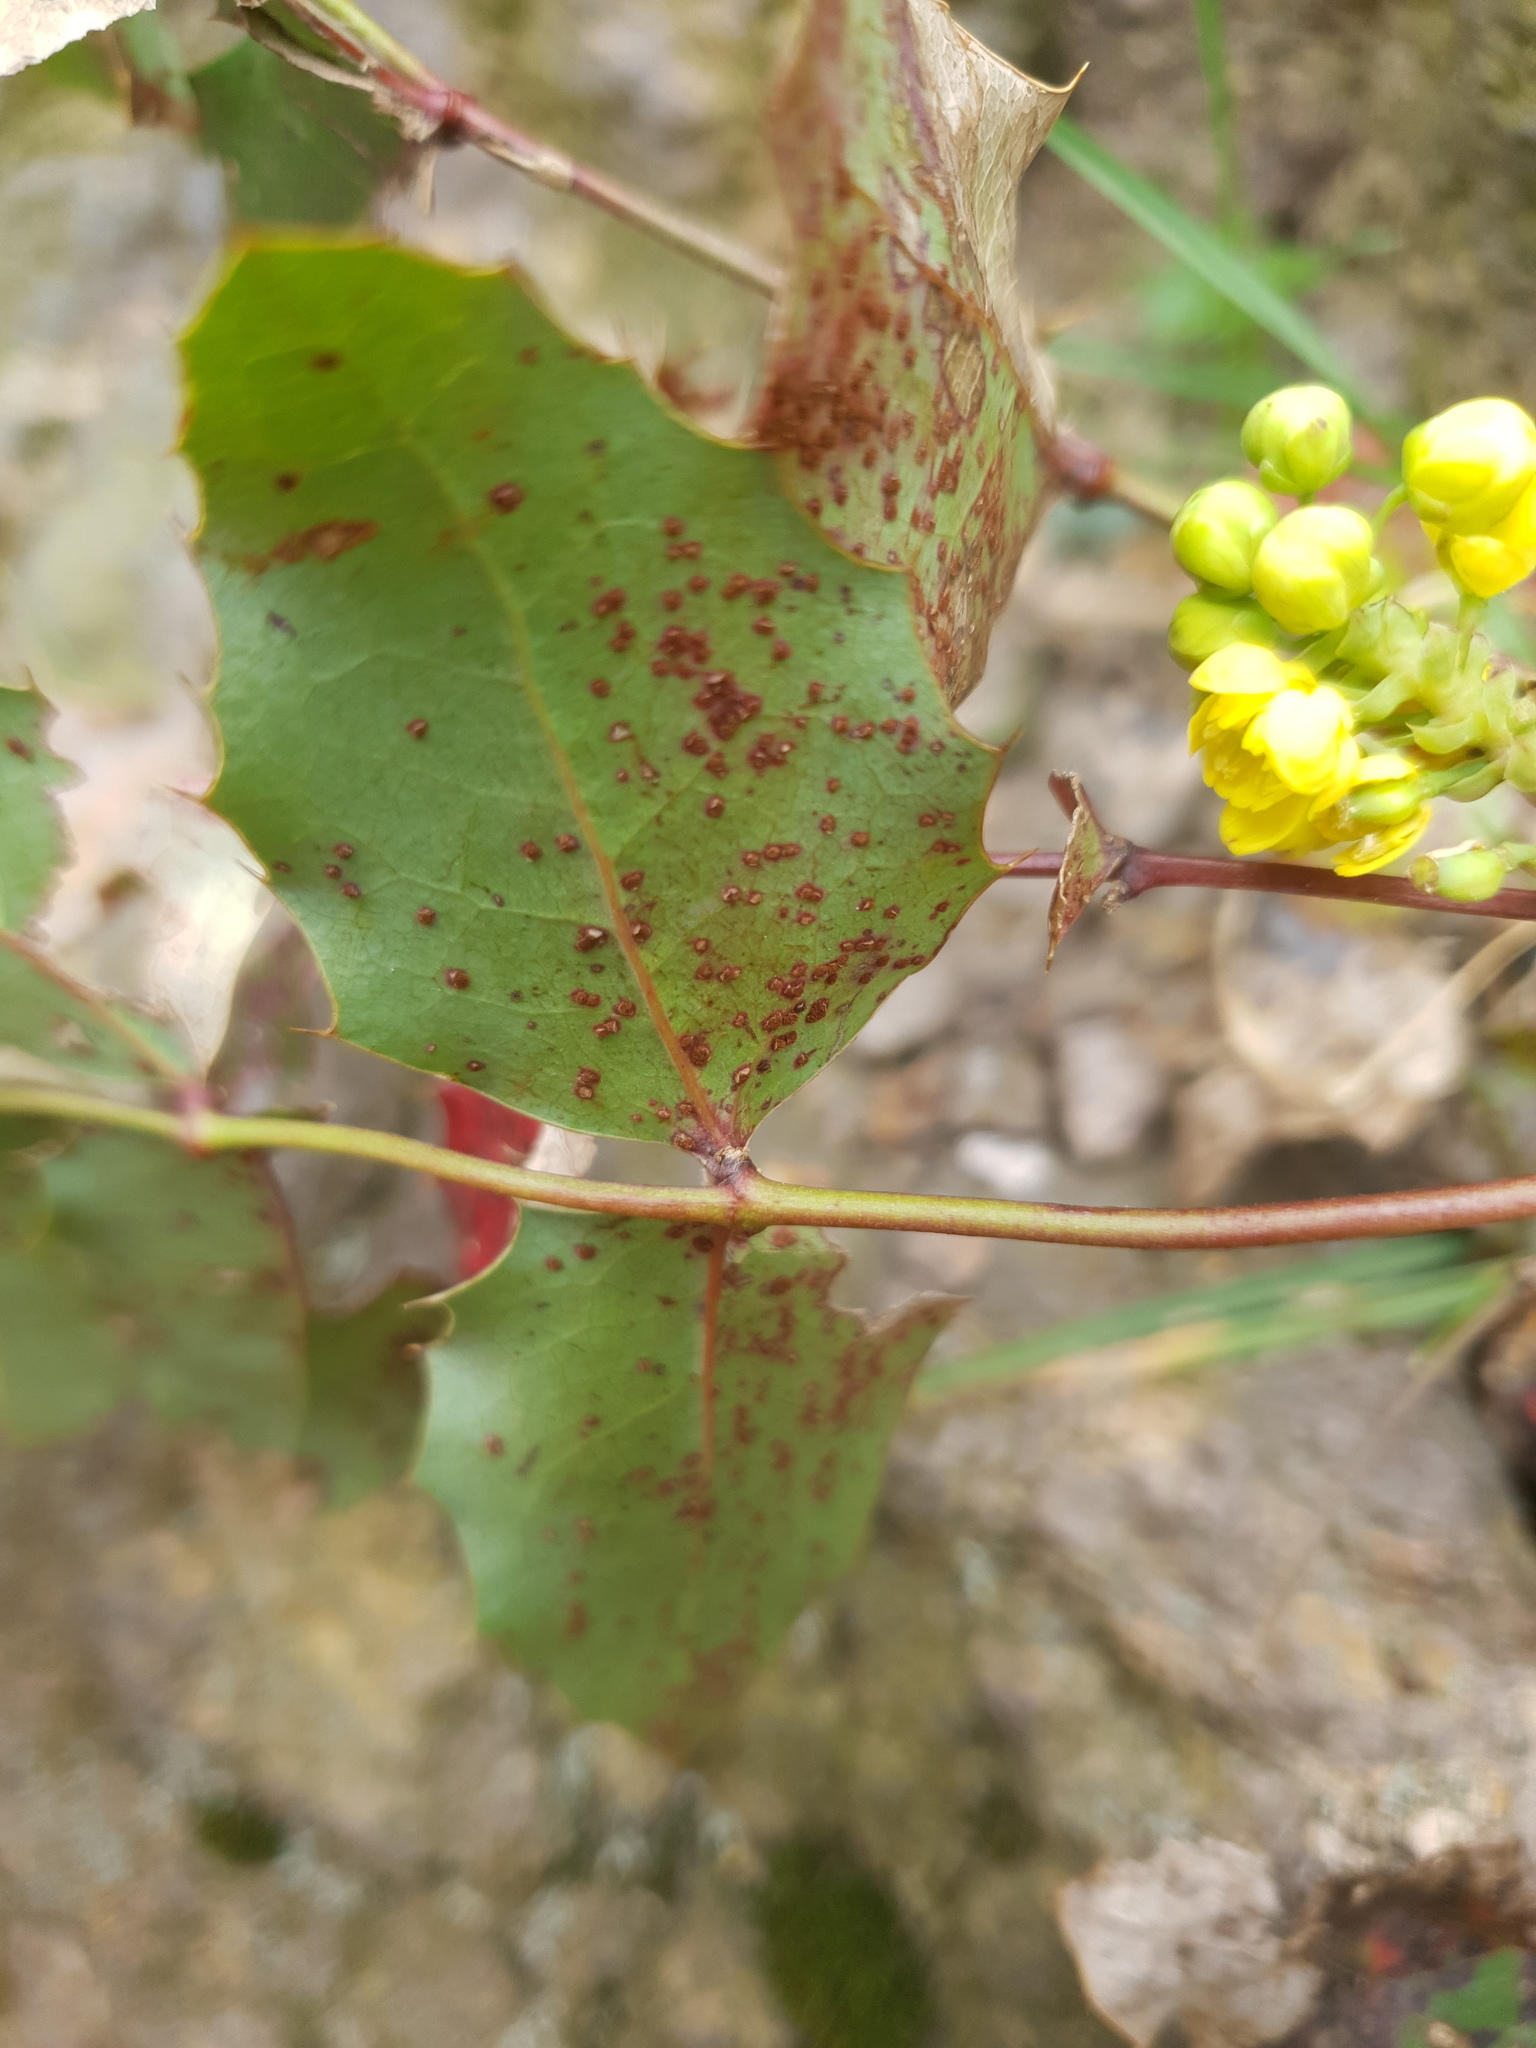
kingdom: Plantae
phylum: Tracheophyta
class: Magnoliopsida
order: Ranunculales
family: Berberidaceae
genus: Mahonia
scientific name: Mahonia aquifolium
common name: Oregon-grape
